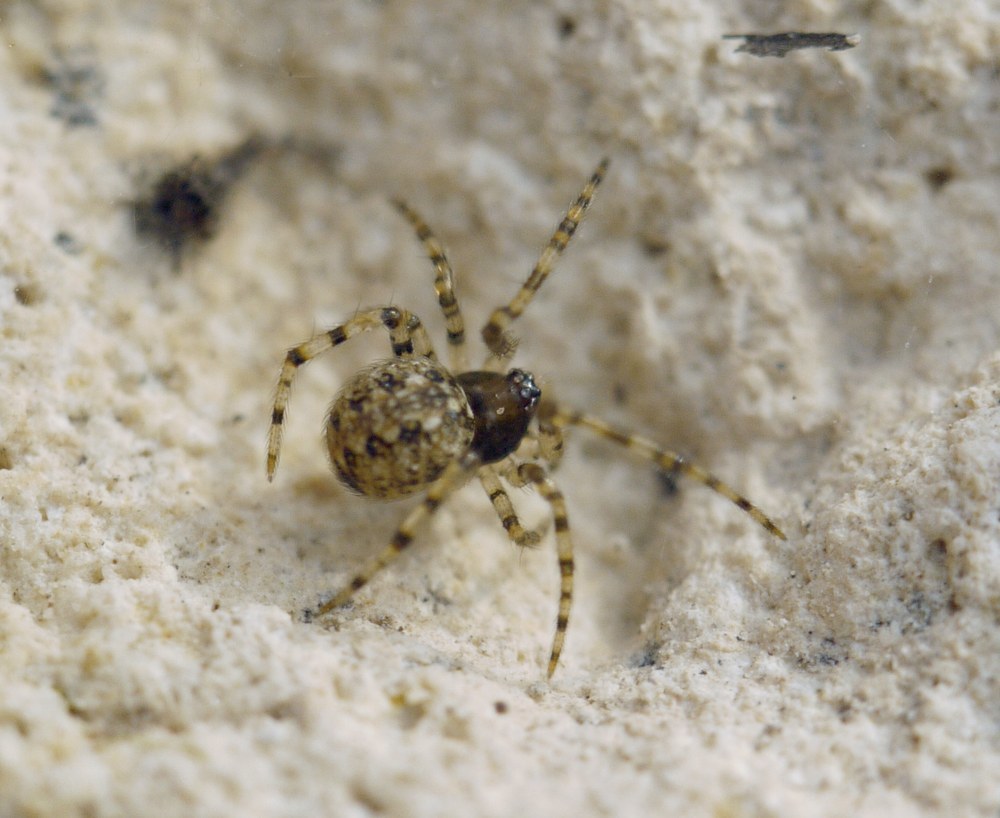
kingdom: Animalia
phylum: Arthropoda
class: Arachnida
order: Araneae
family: Theridiidae
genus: Theridion
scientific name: Theridion
